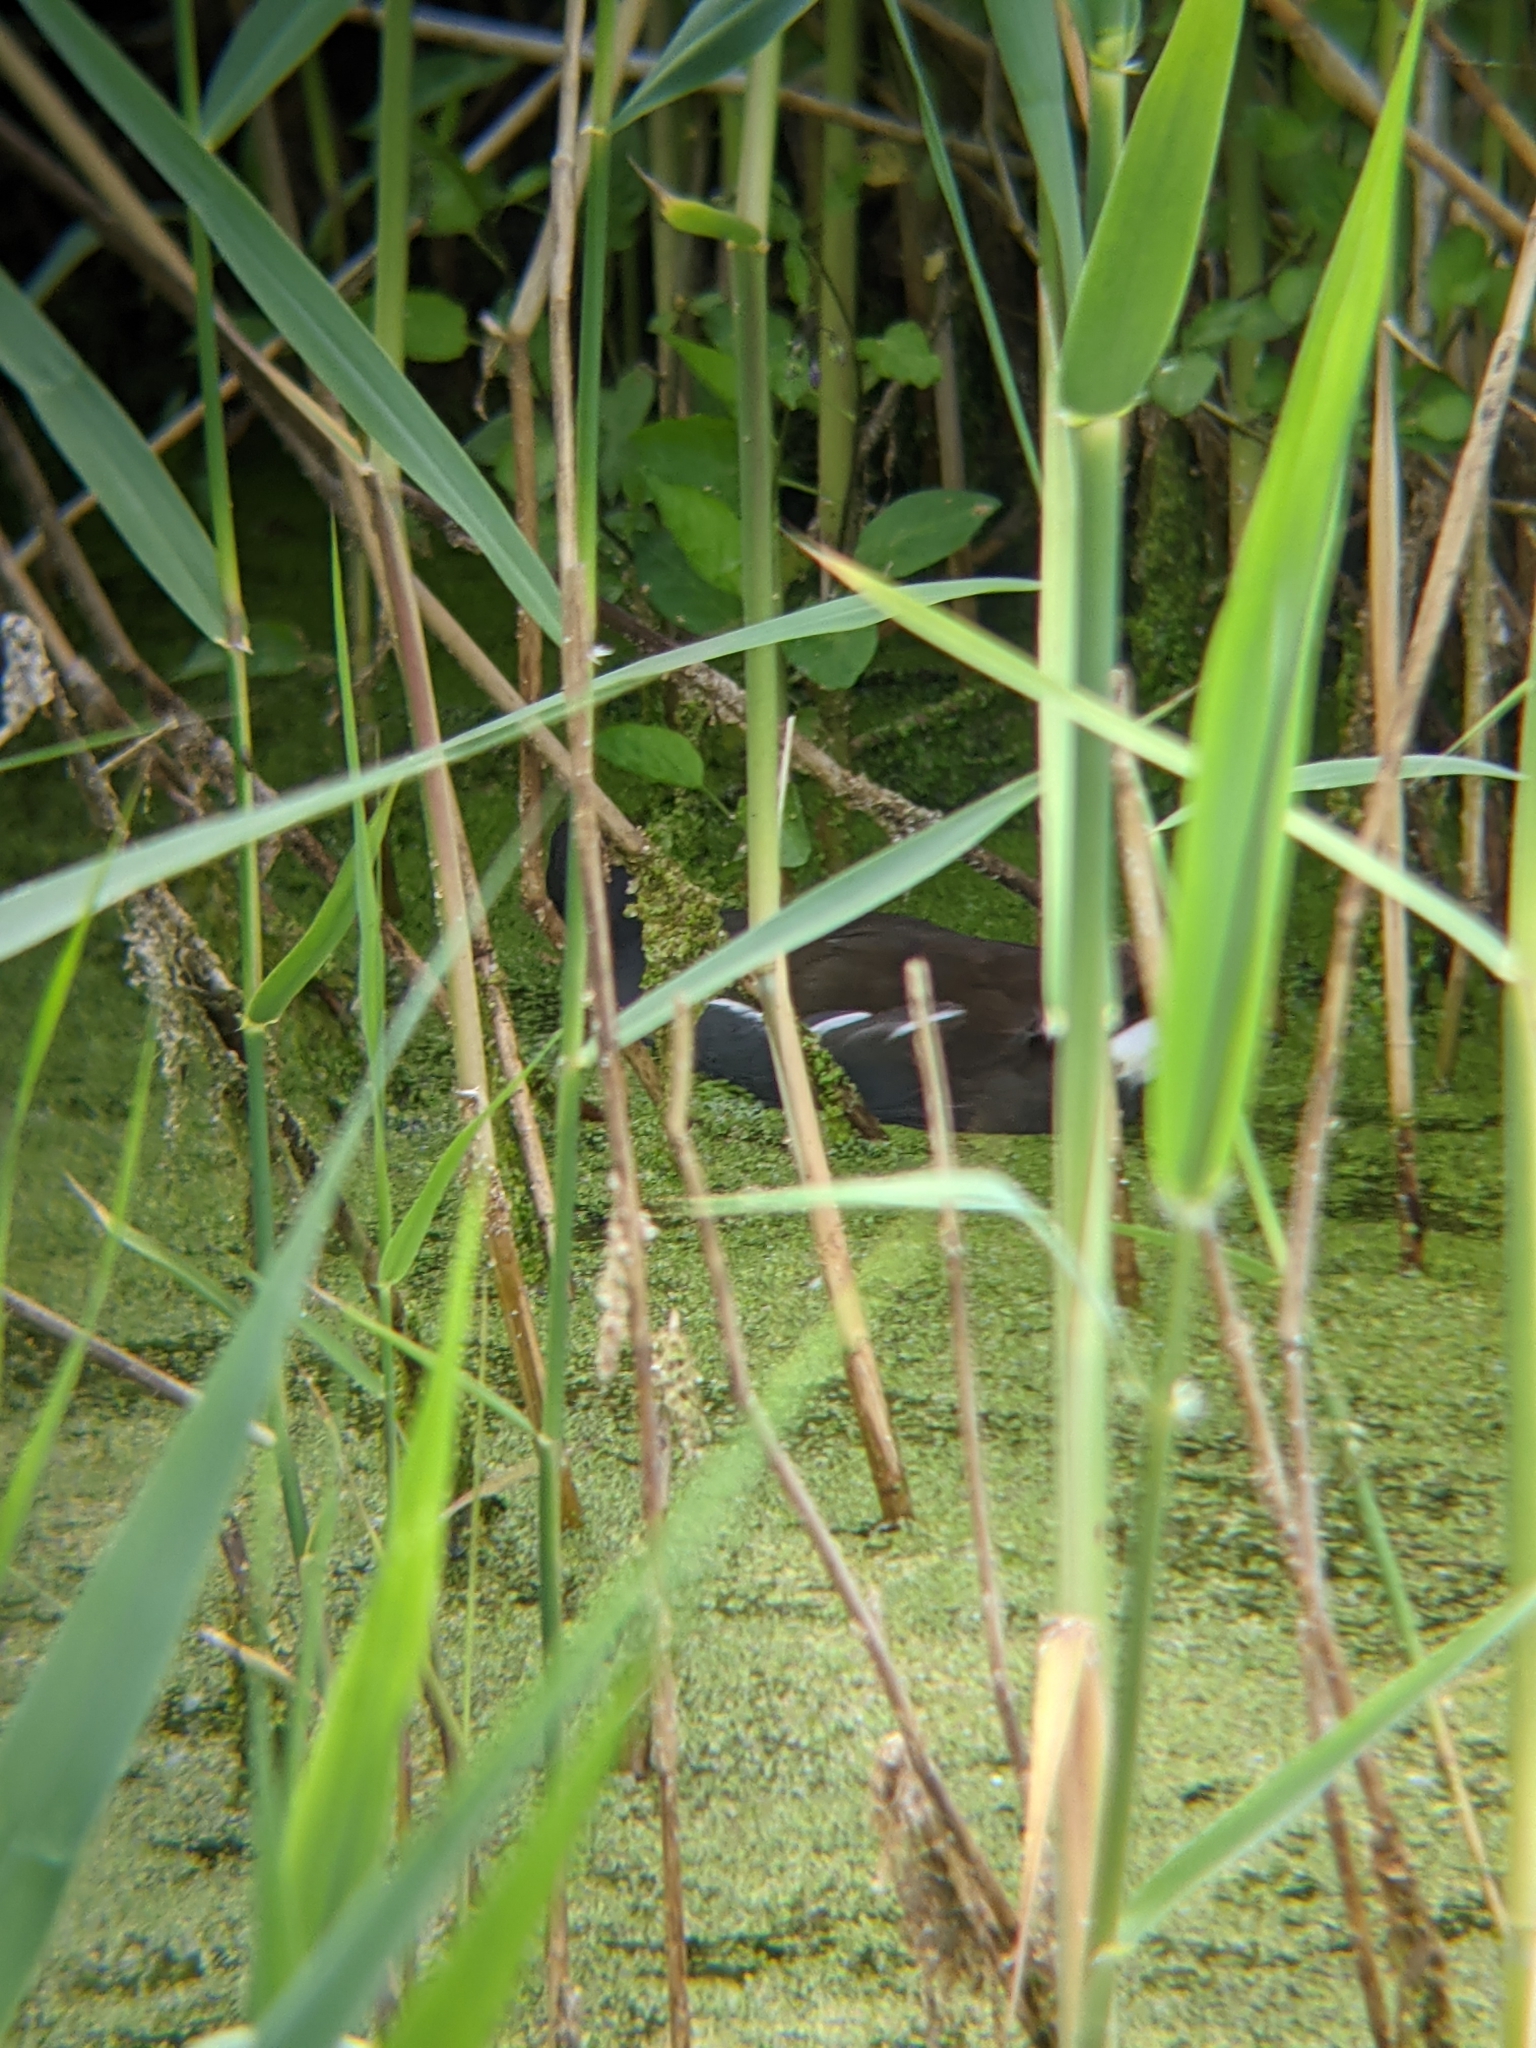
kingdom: Animalia
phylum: Chordata
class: Aves
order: Gruiformes
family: Rallidae
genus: Gallinula
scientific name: Gallinula chloropus
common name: Common moorhen
